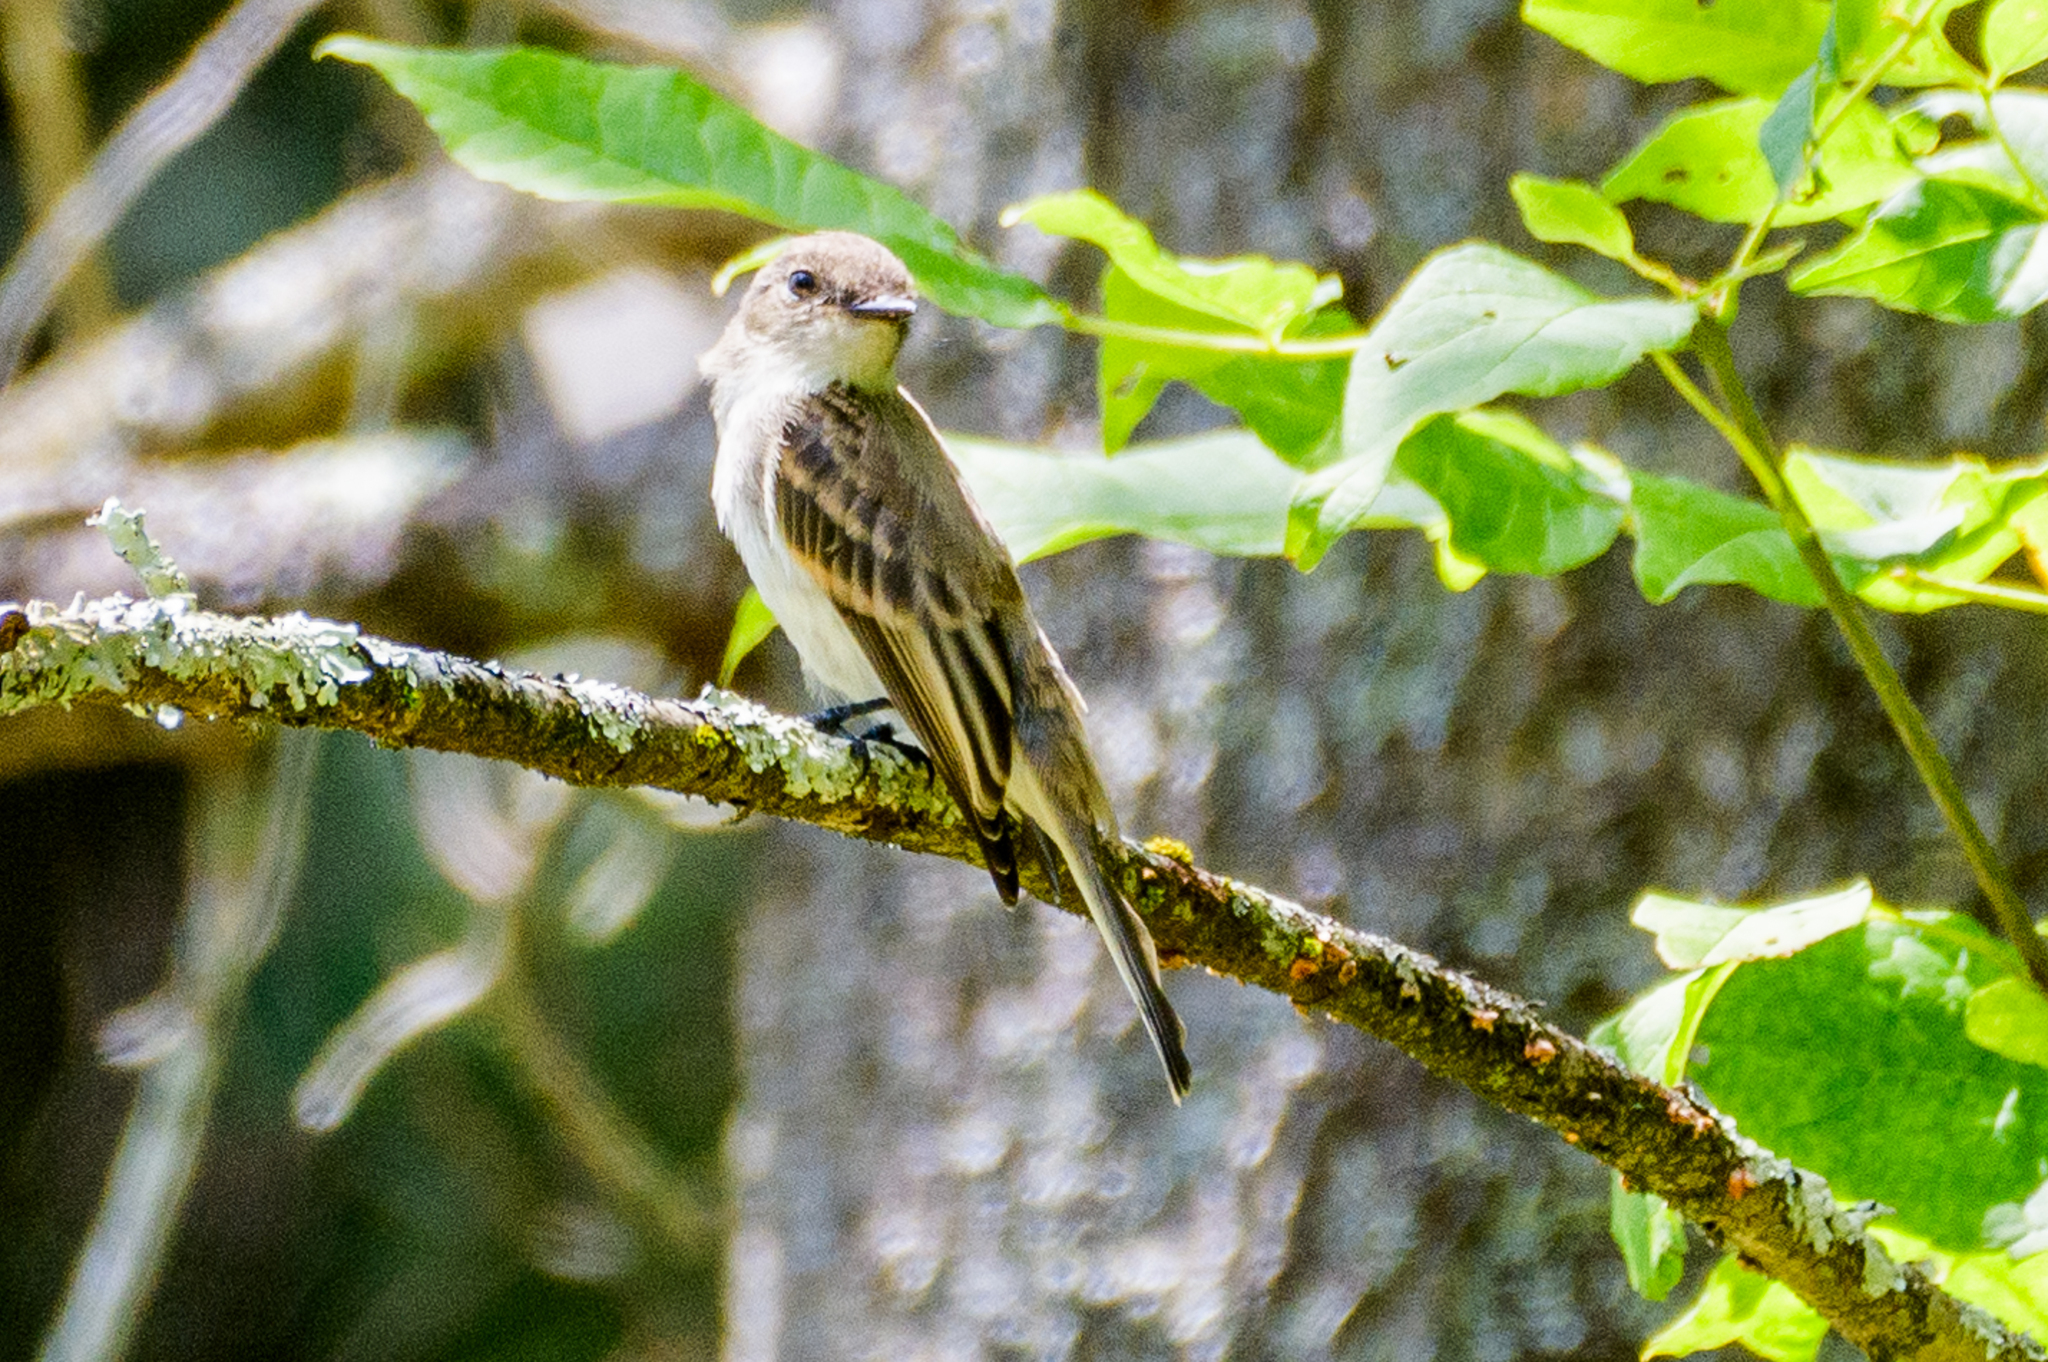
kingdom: Animalia
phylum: Chordata
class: Aves
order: Passeriformes
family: Tyrannidae
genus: Sayornis
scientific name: Sayornis phoebe
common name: Eastern phoebe
